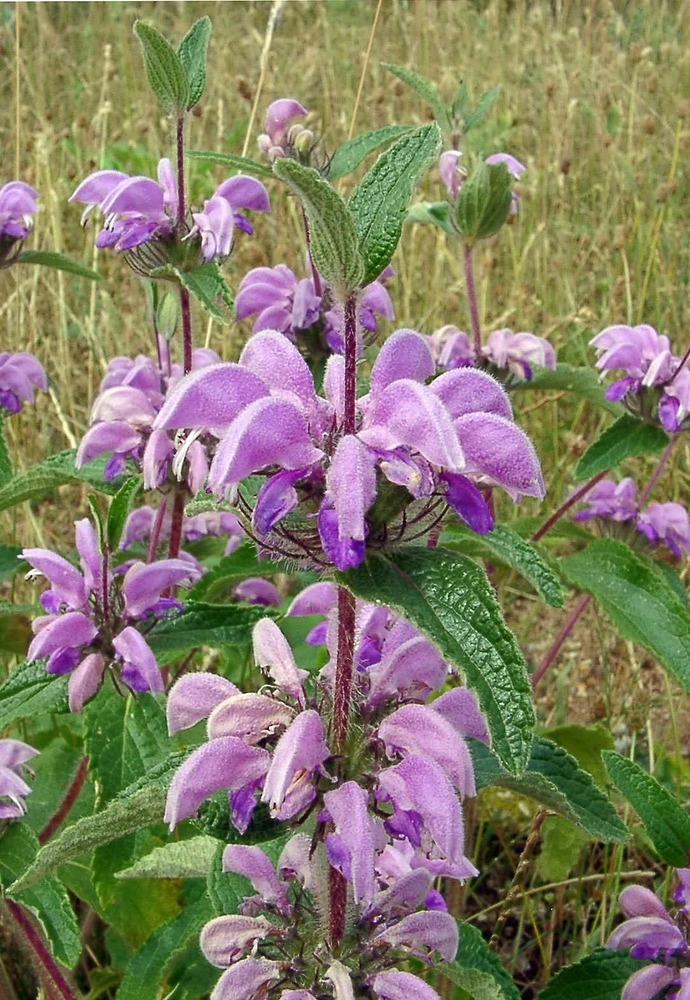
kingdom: Plantae
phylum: Tracheophyta
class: Magnoliopsida
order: Lamiales
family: Lamiaceae
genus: Phlomis
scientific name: Phlomis herba-venti
